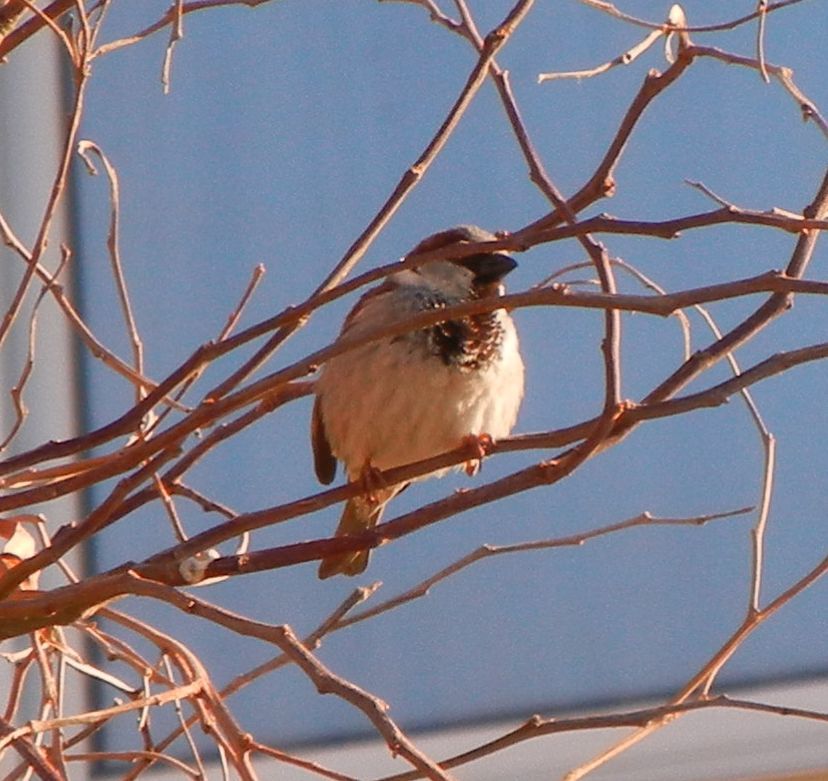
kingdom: Animalia
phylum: Chordata
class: Aves
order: Passeriformes
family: Passeridae
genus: Passer
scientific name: Passer domesticus
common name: House sparrow
